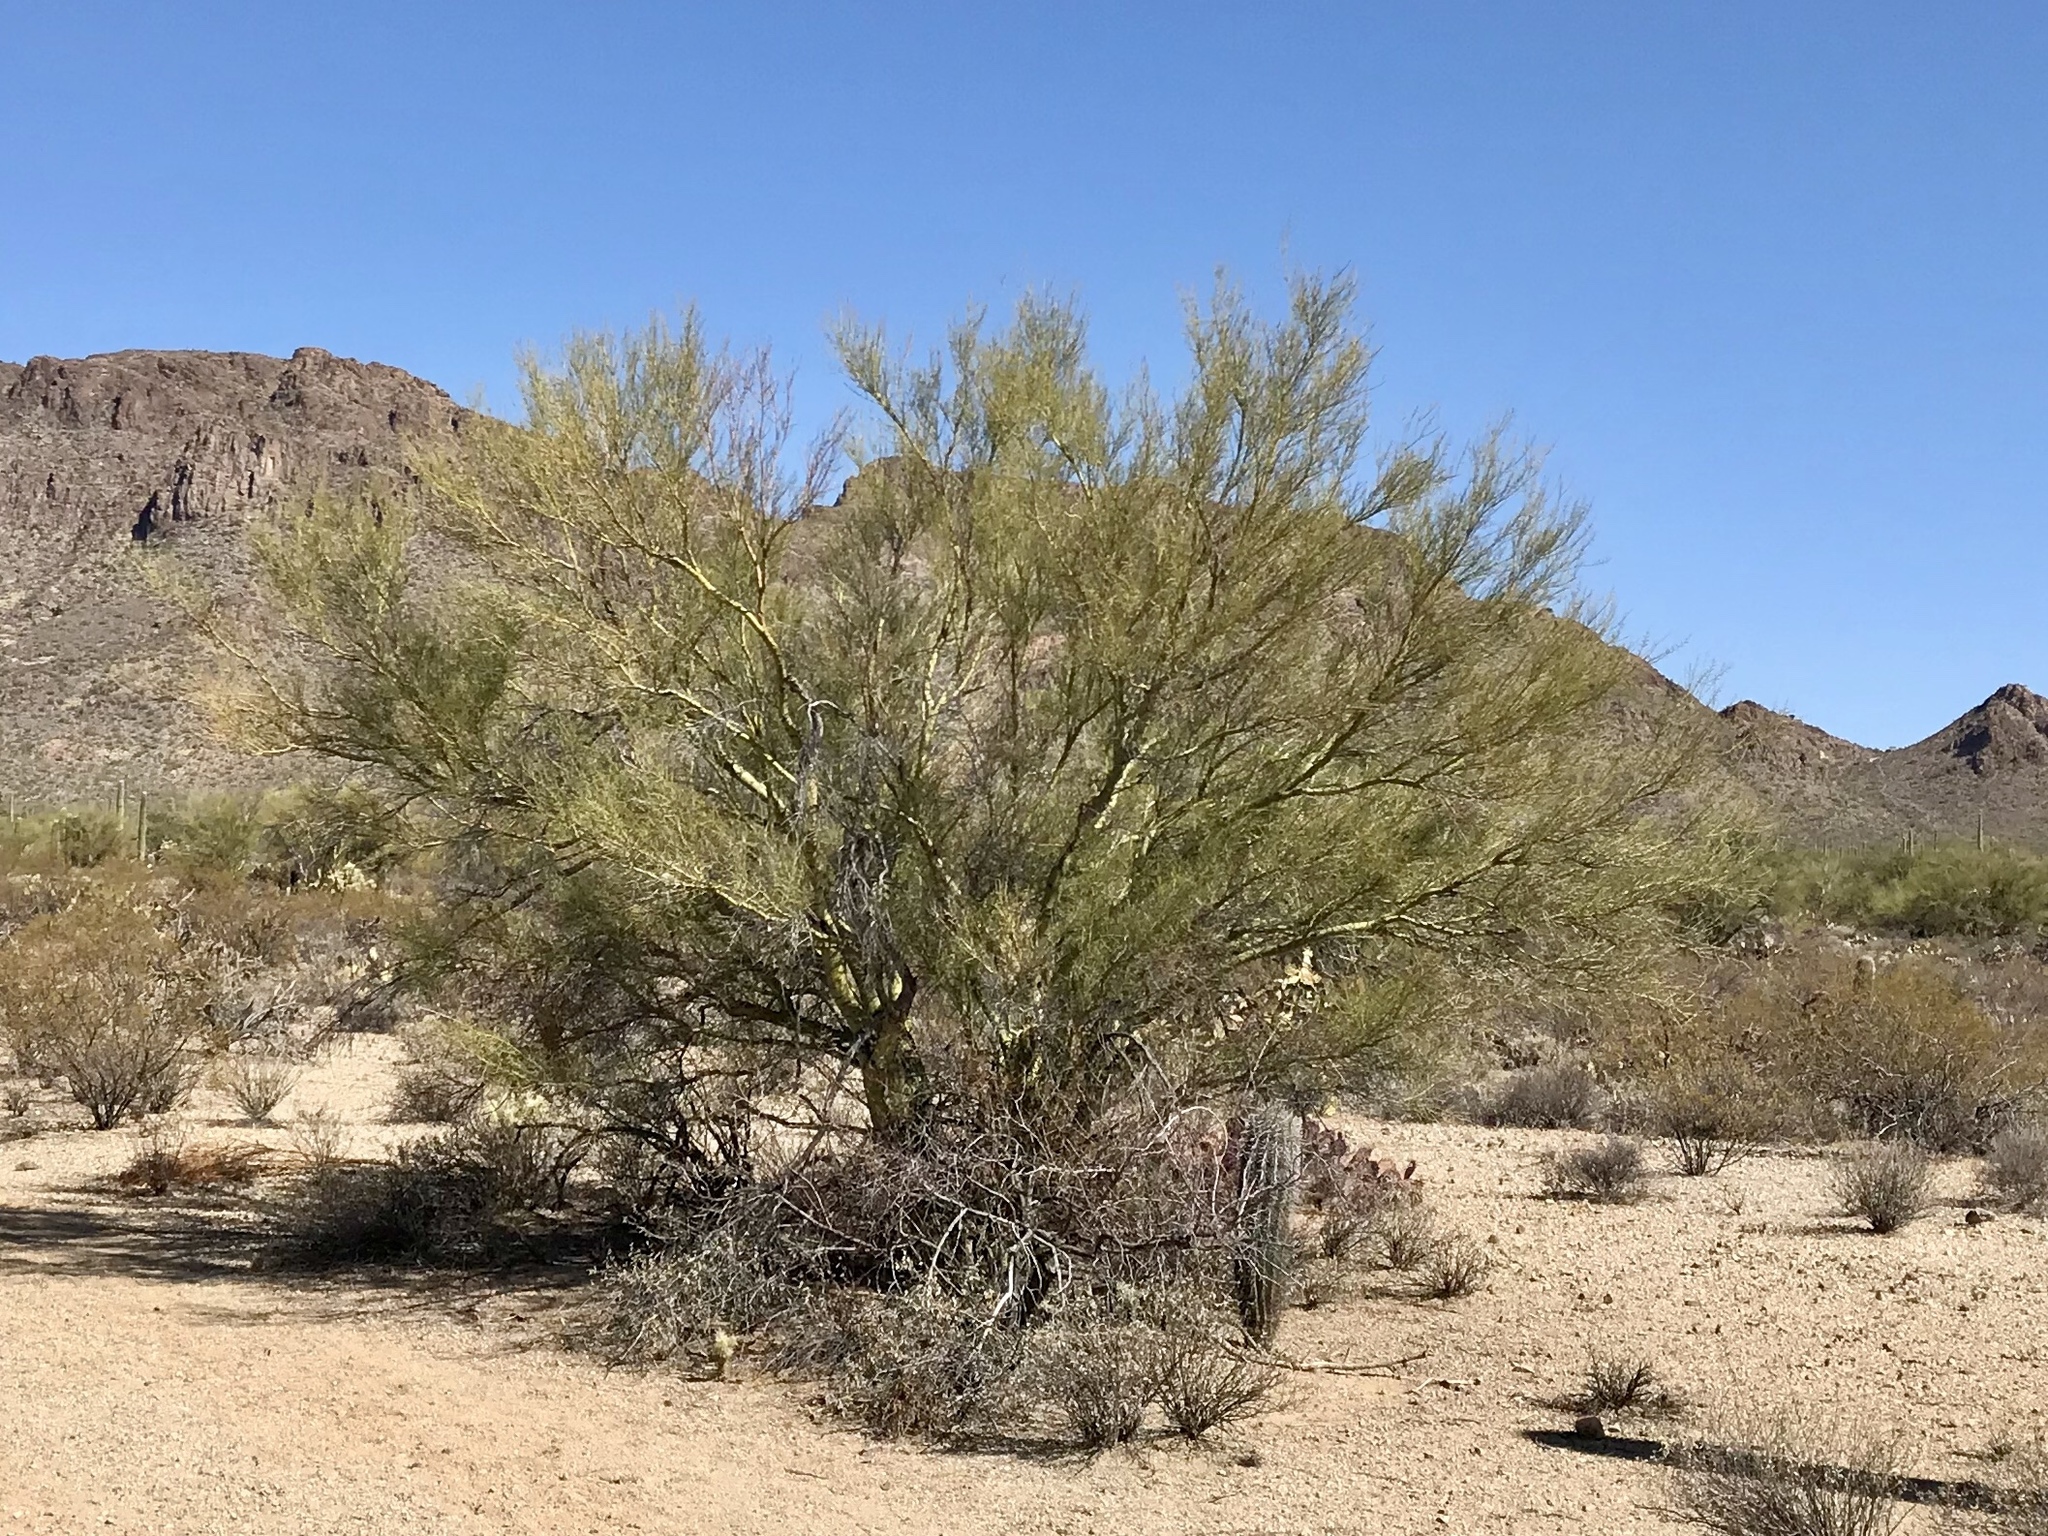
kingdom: Plantae
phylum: Tracheophyta
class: Magnoliopsida
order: Fabales
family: Fabaceae
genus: Parkinsonia
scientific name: Parkinsonia microphylla
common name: Yellow paloverde
